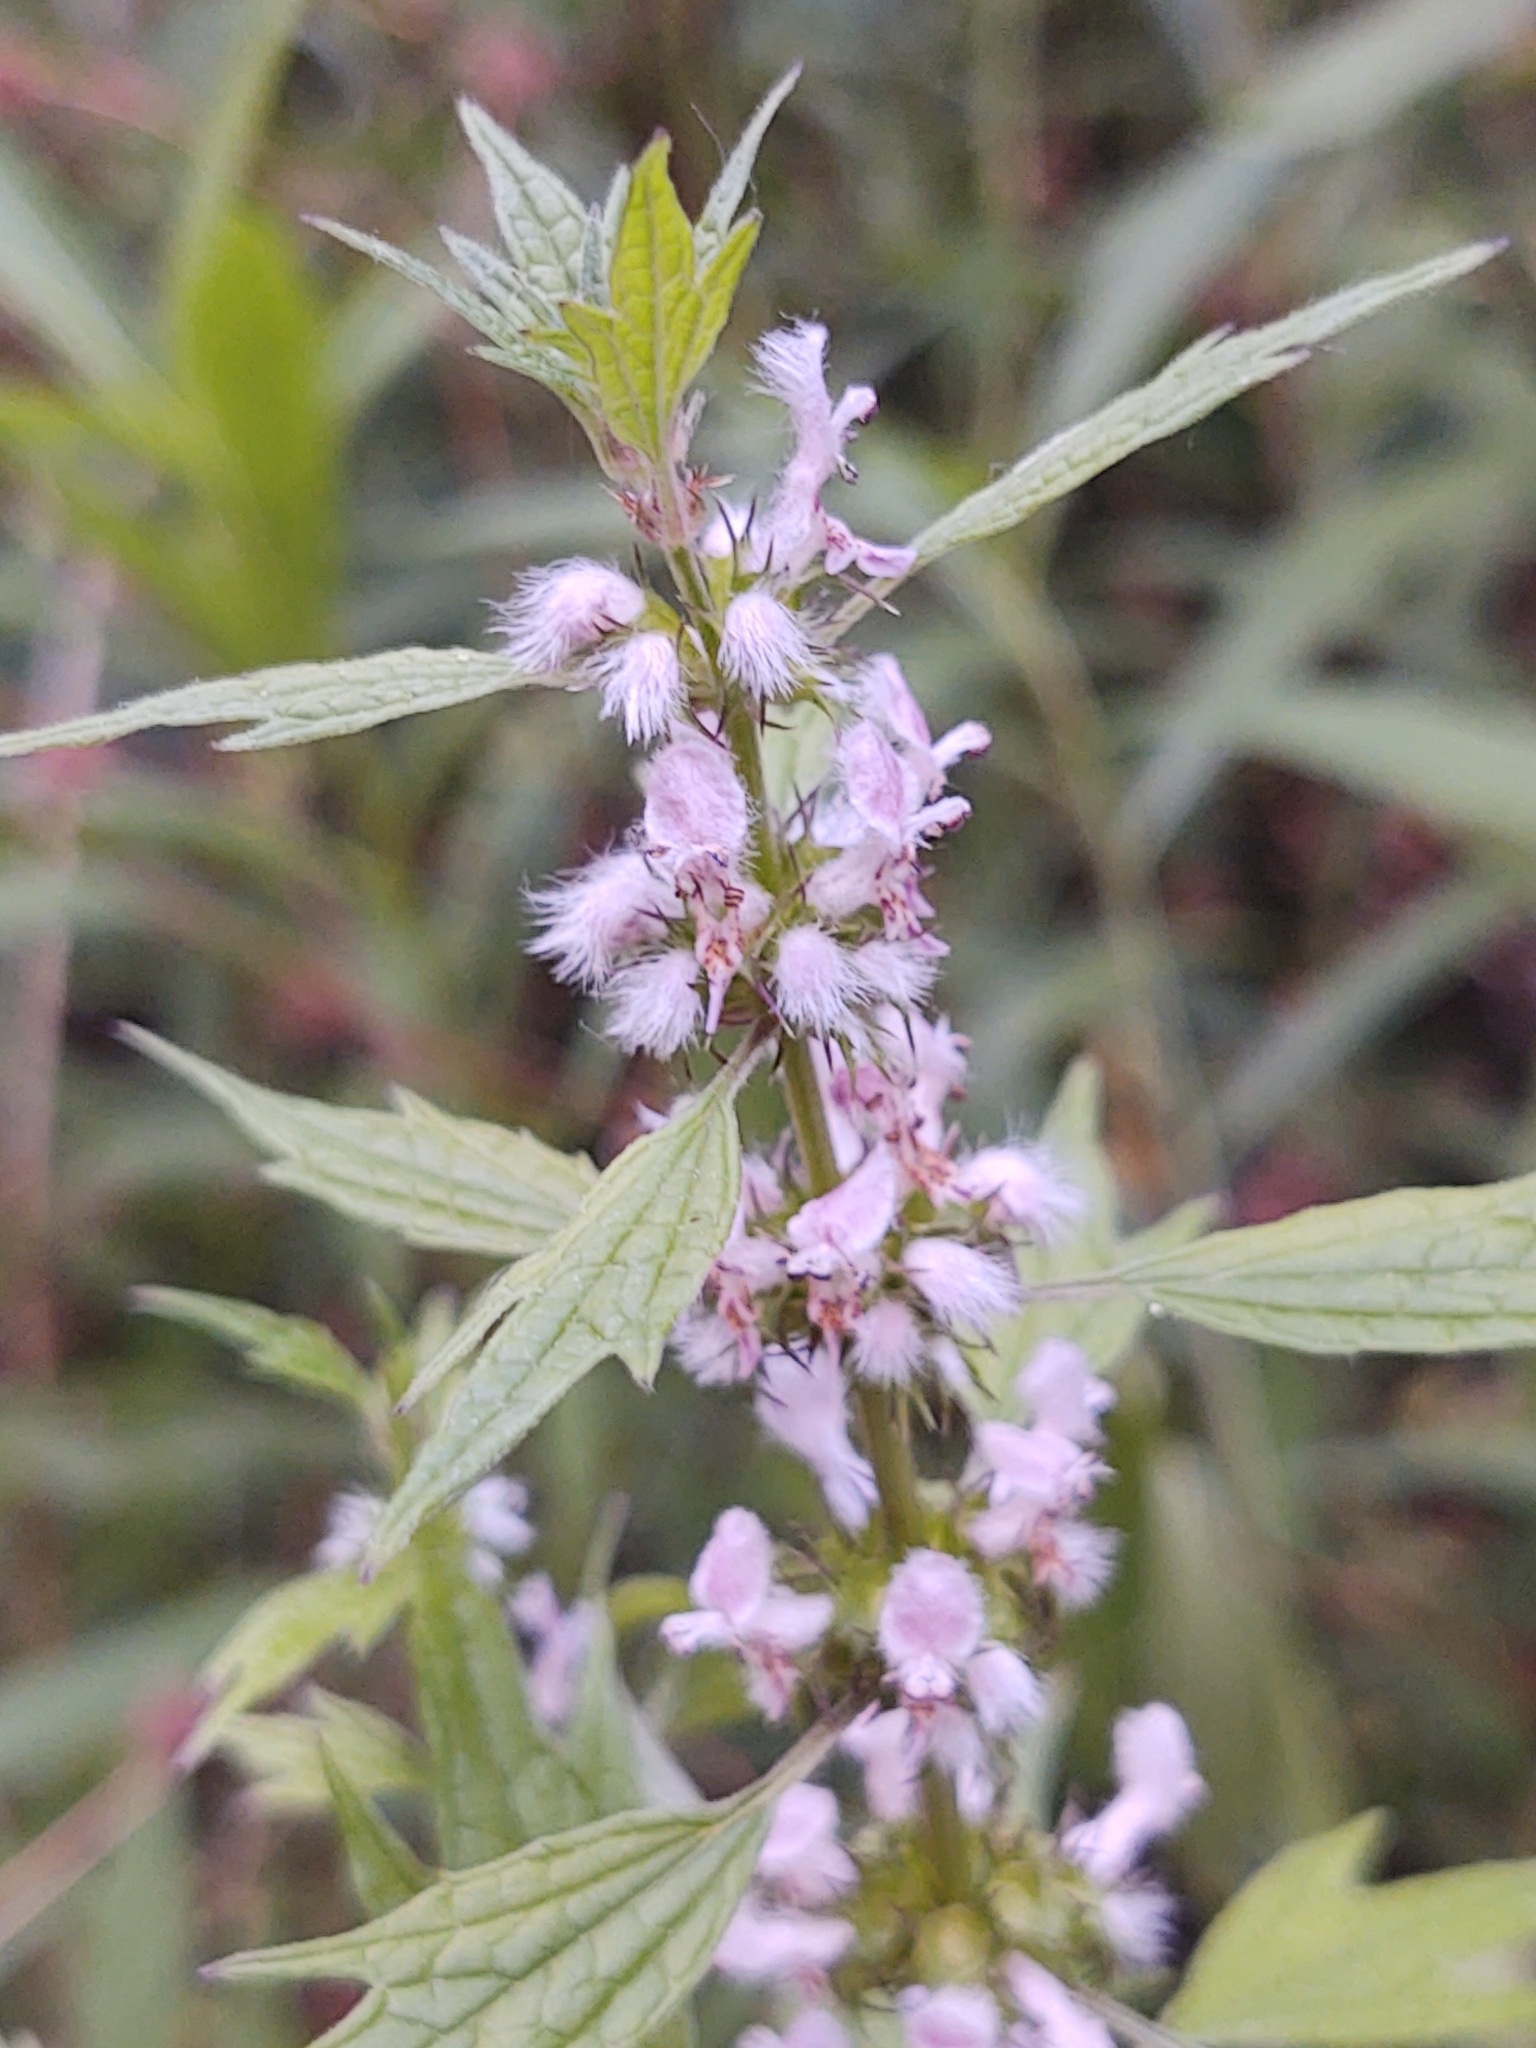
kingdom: Plantae
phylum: Tracheophyta
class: Magnoliopsida
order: Lamiales
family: Lamiaceae
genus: Leonurus
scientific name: Leonurus cardiaca
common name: Motherwort
